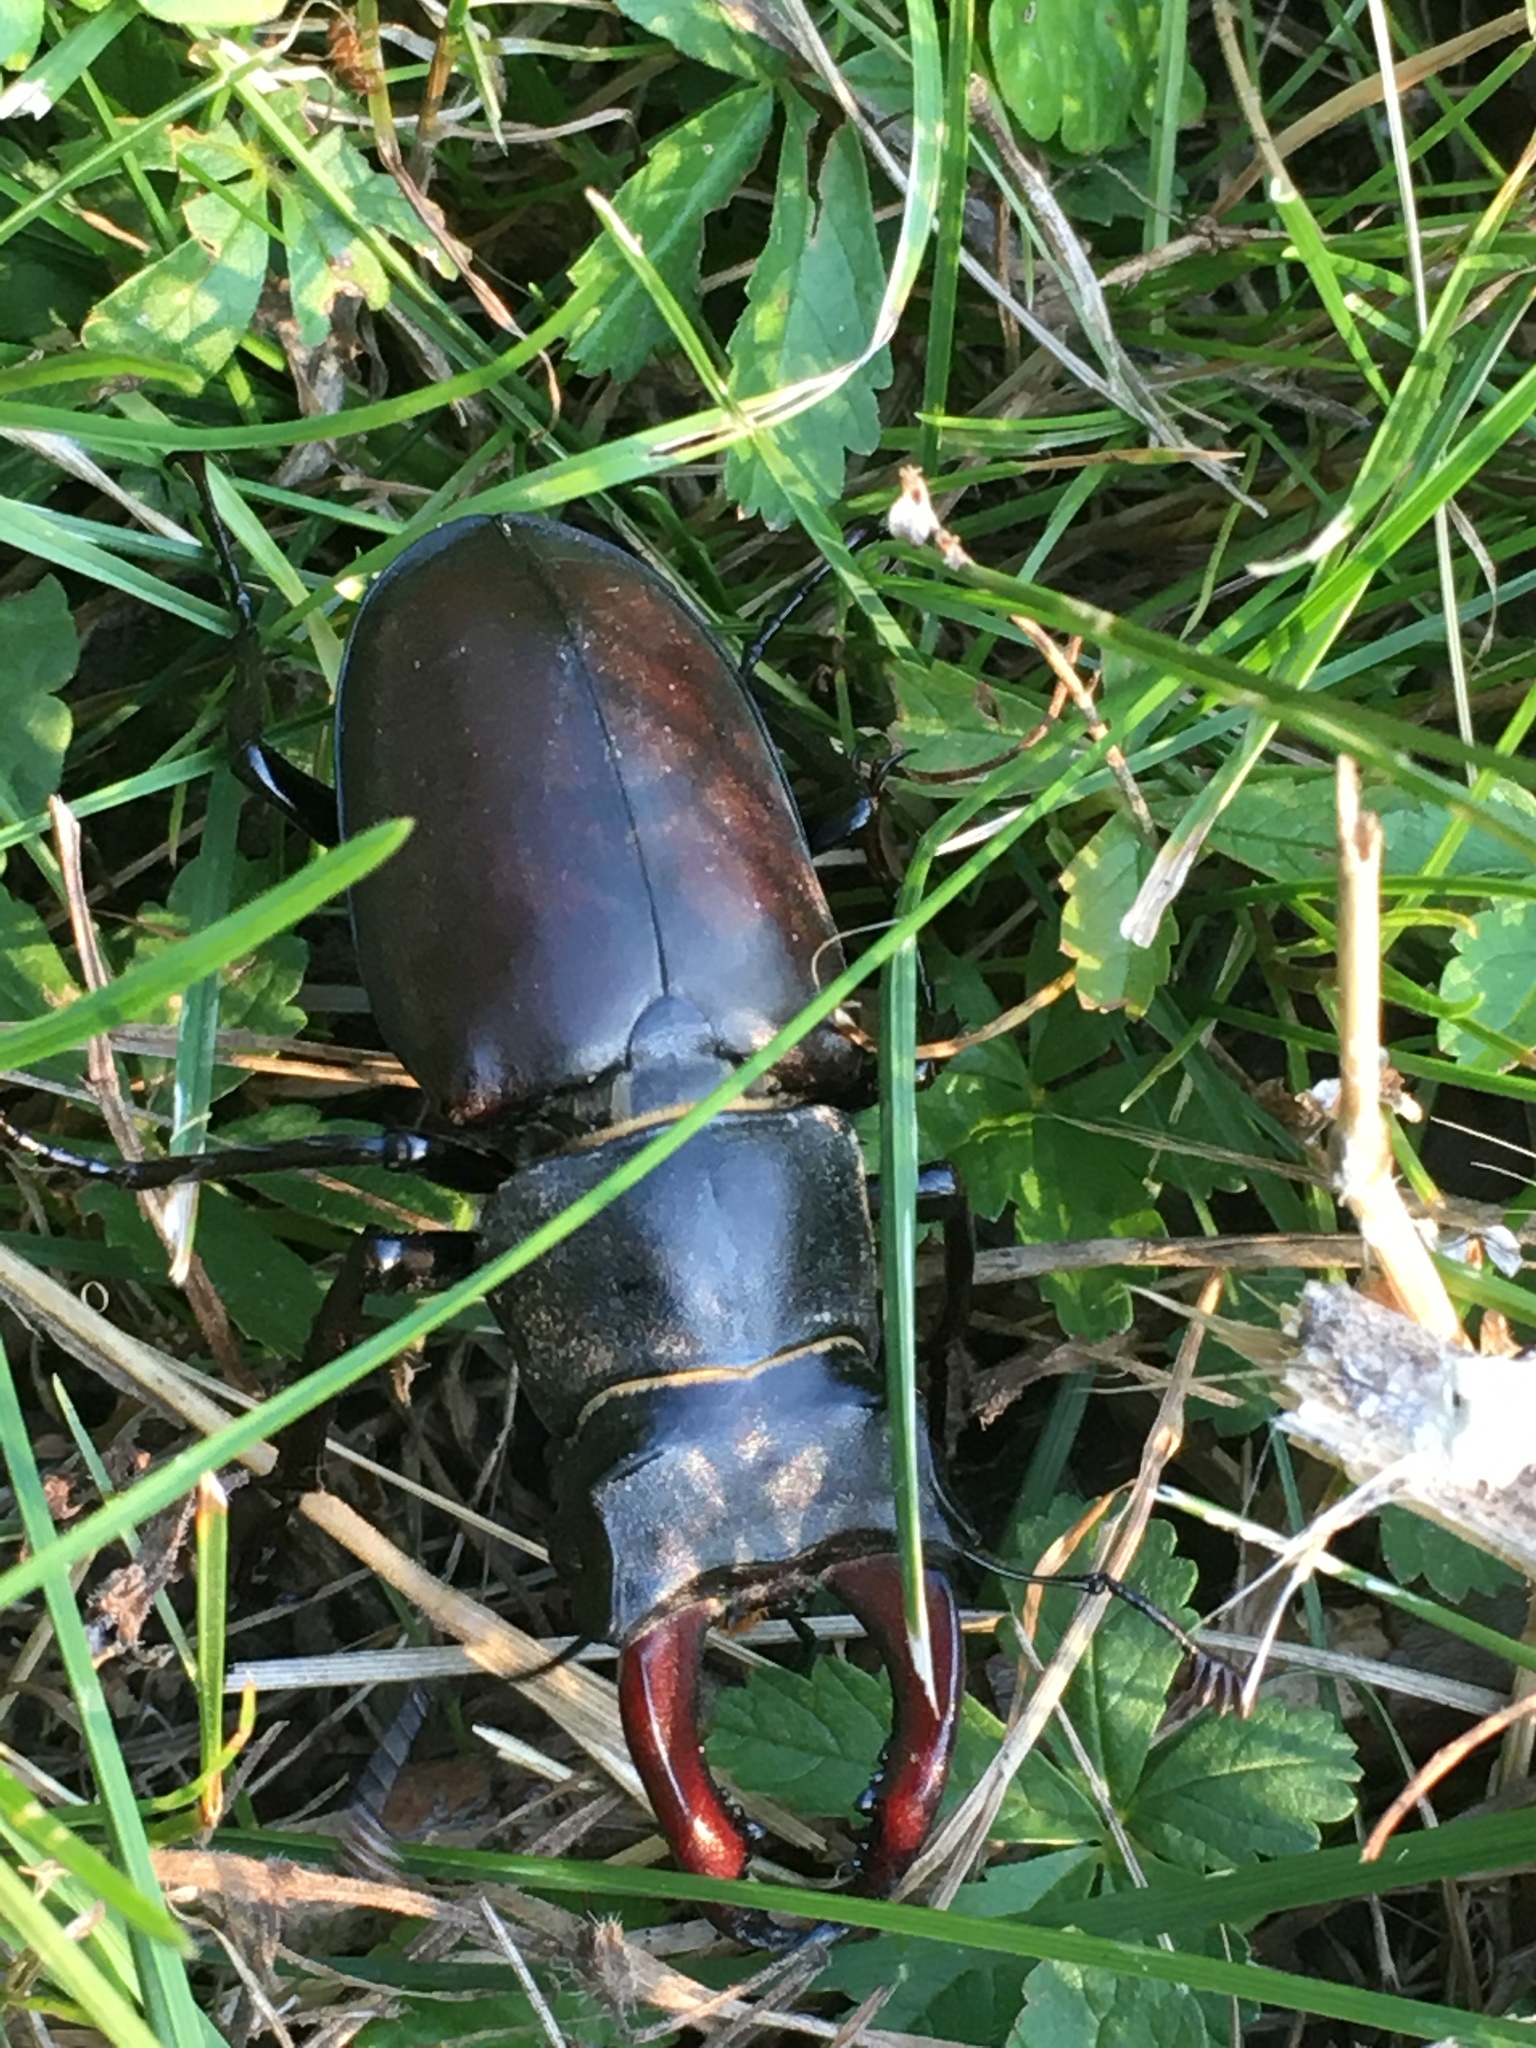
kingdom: Animalia
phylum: Arthropoda
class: Insecta
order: Coleoptera
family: Lucanidae
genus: Lucanus
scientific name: Lucanus cervus
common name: Stag beetle
